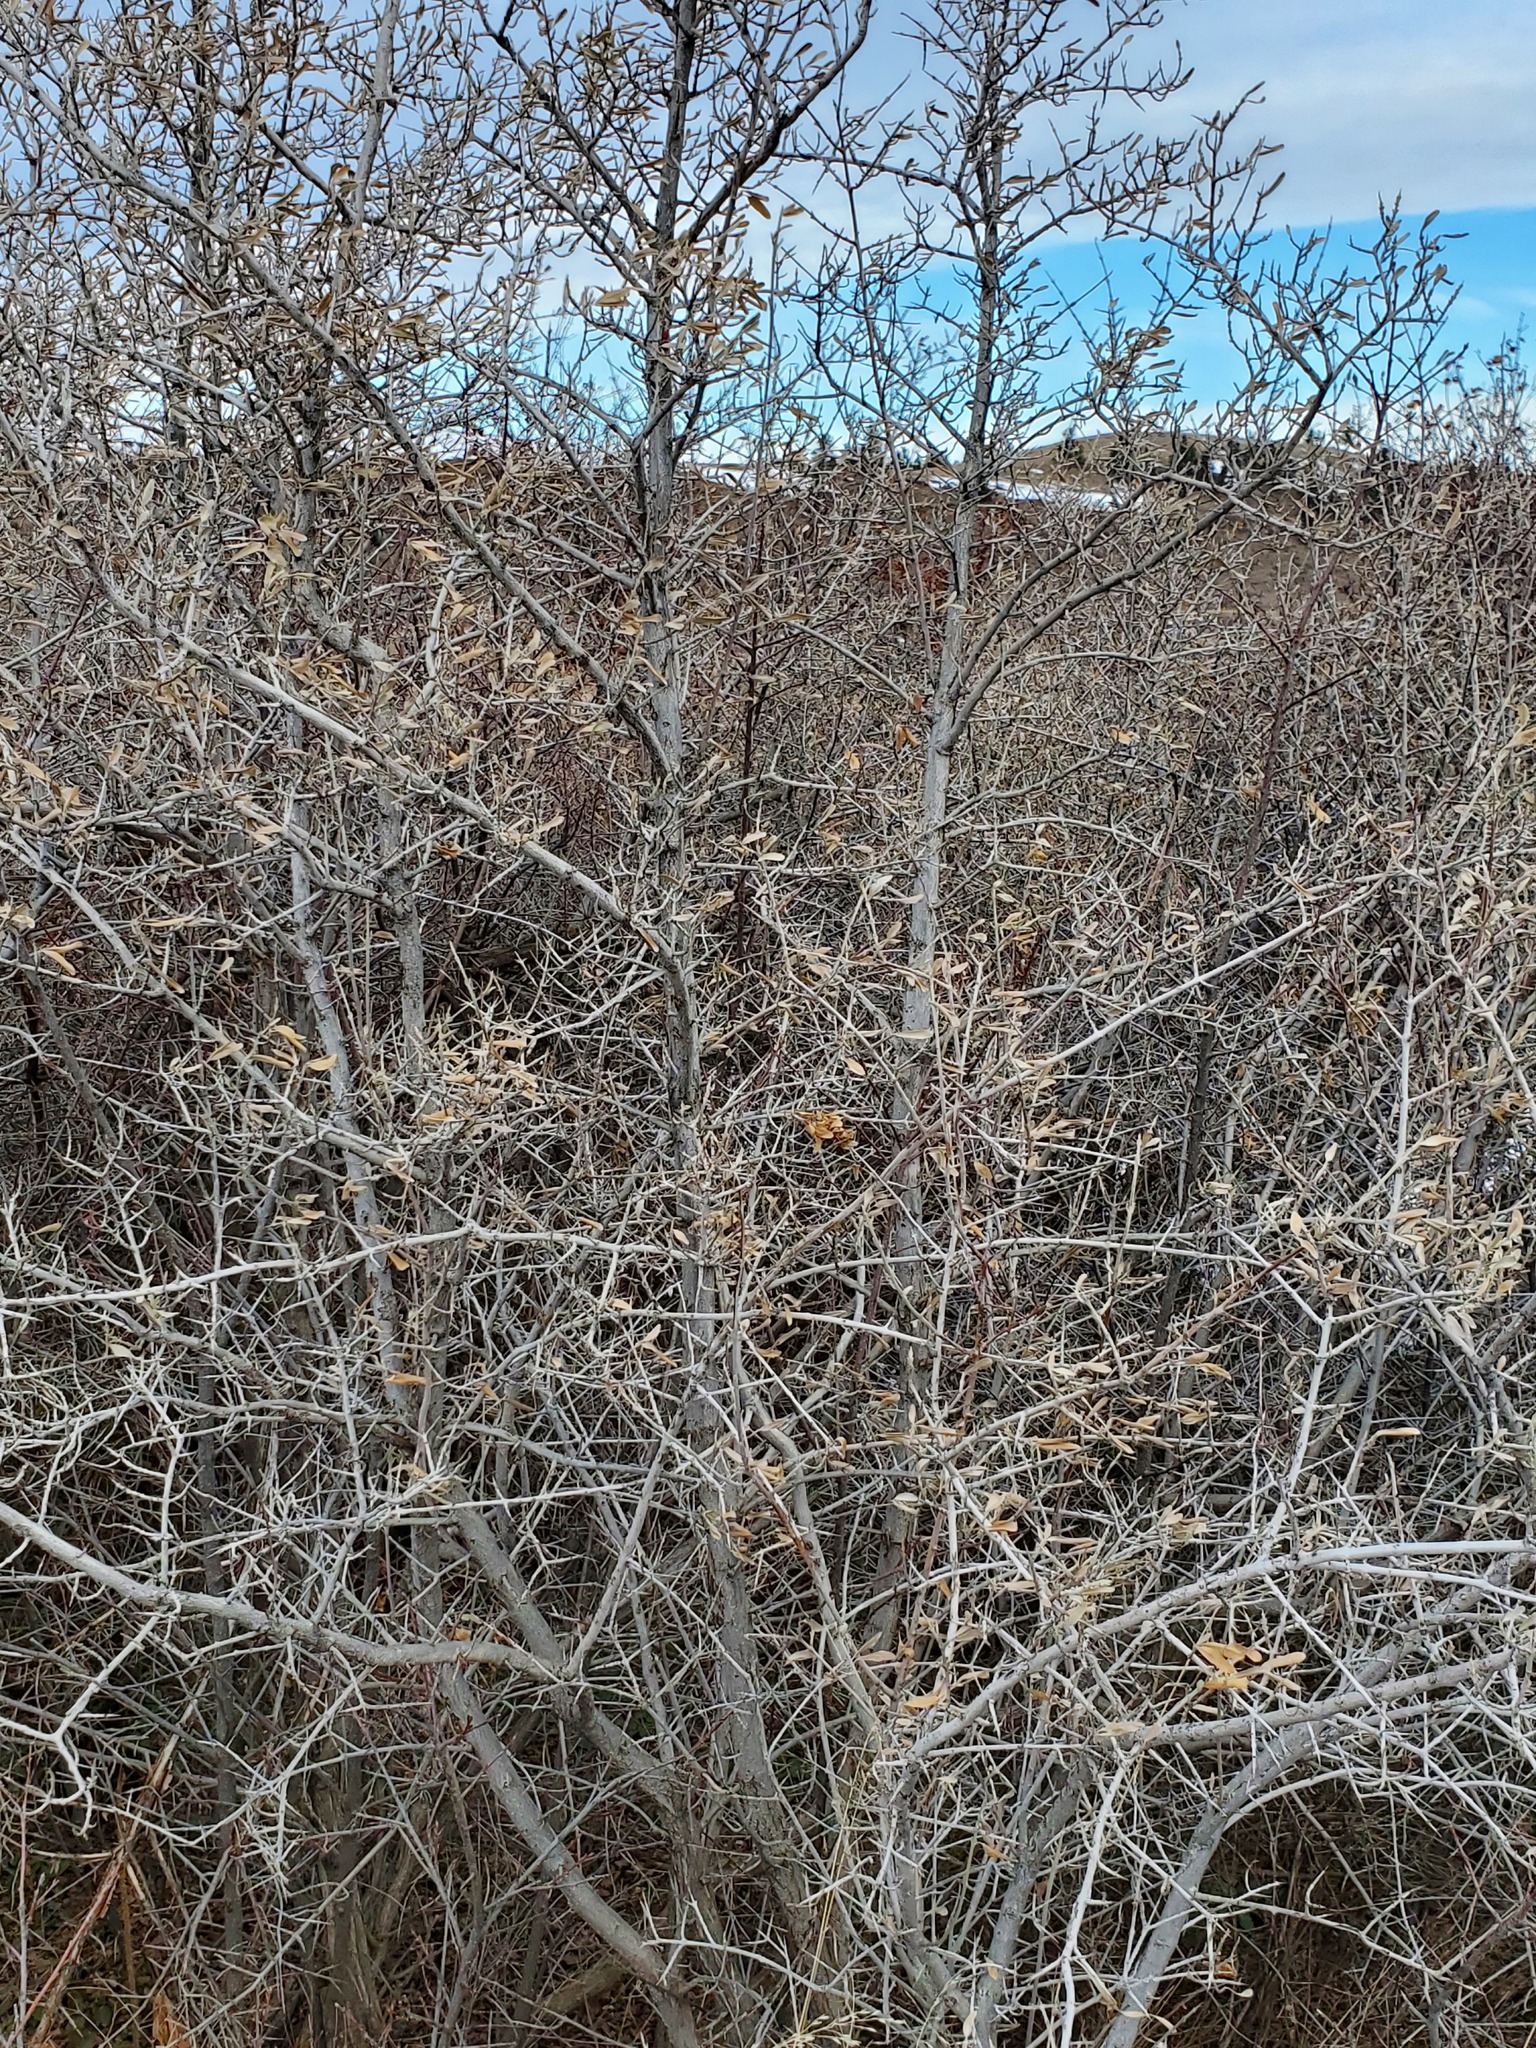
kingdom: Plantae
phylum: Tracheophyta
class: Magnoliopsida
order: Rosales
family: Elaeagnaceae
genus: Shepherdia
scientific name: Shepherdia argentea
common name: Silver buffaloberry
